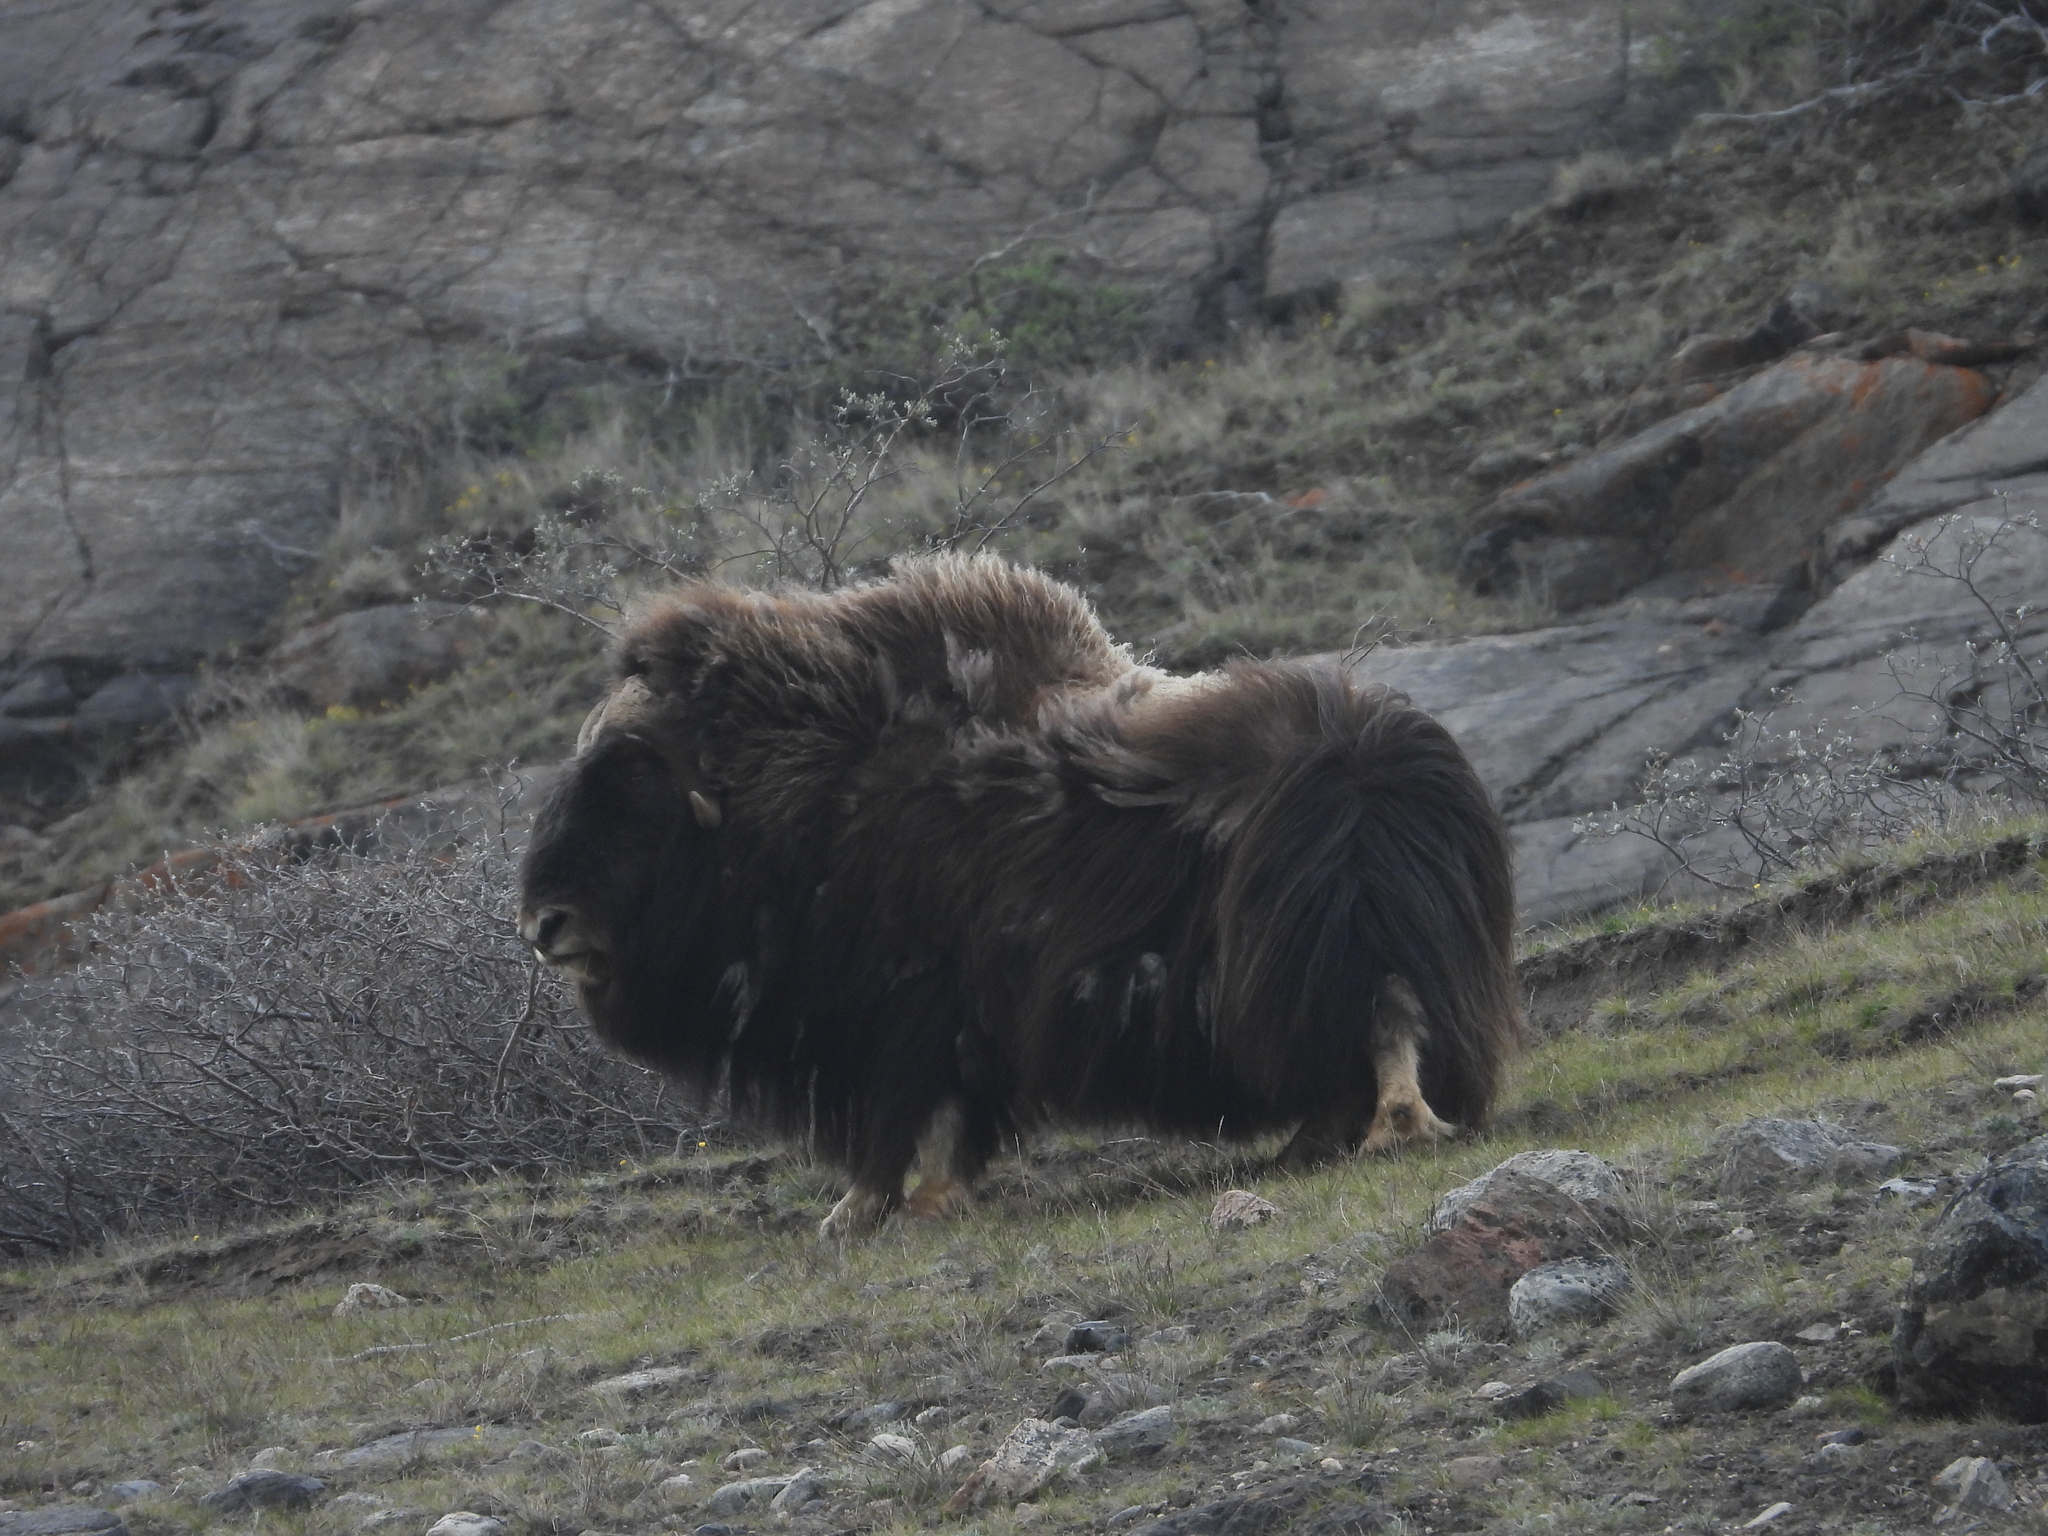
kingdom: Animalia
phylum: Chordata
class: Mammalia
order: Artiodactyla
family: Bovidae
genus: Ovibos
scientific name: Ovibos moschatus
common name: Muskox
